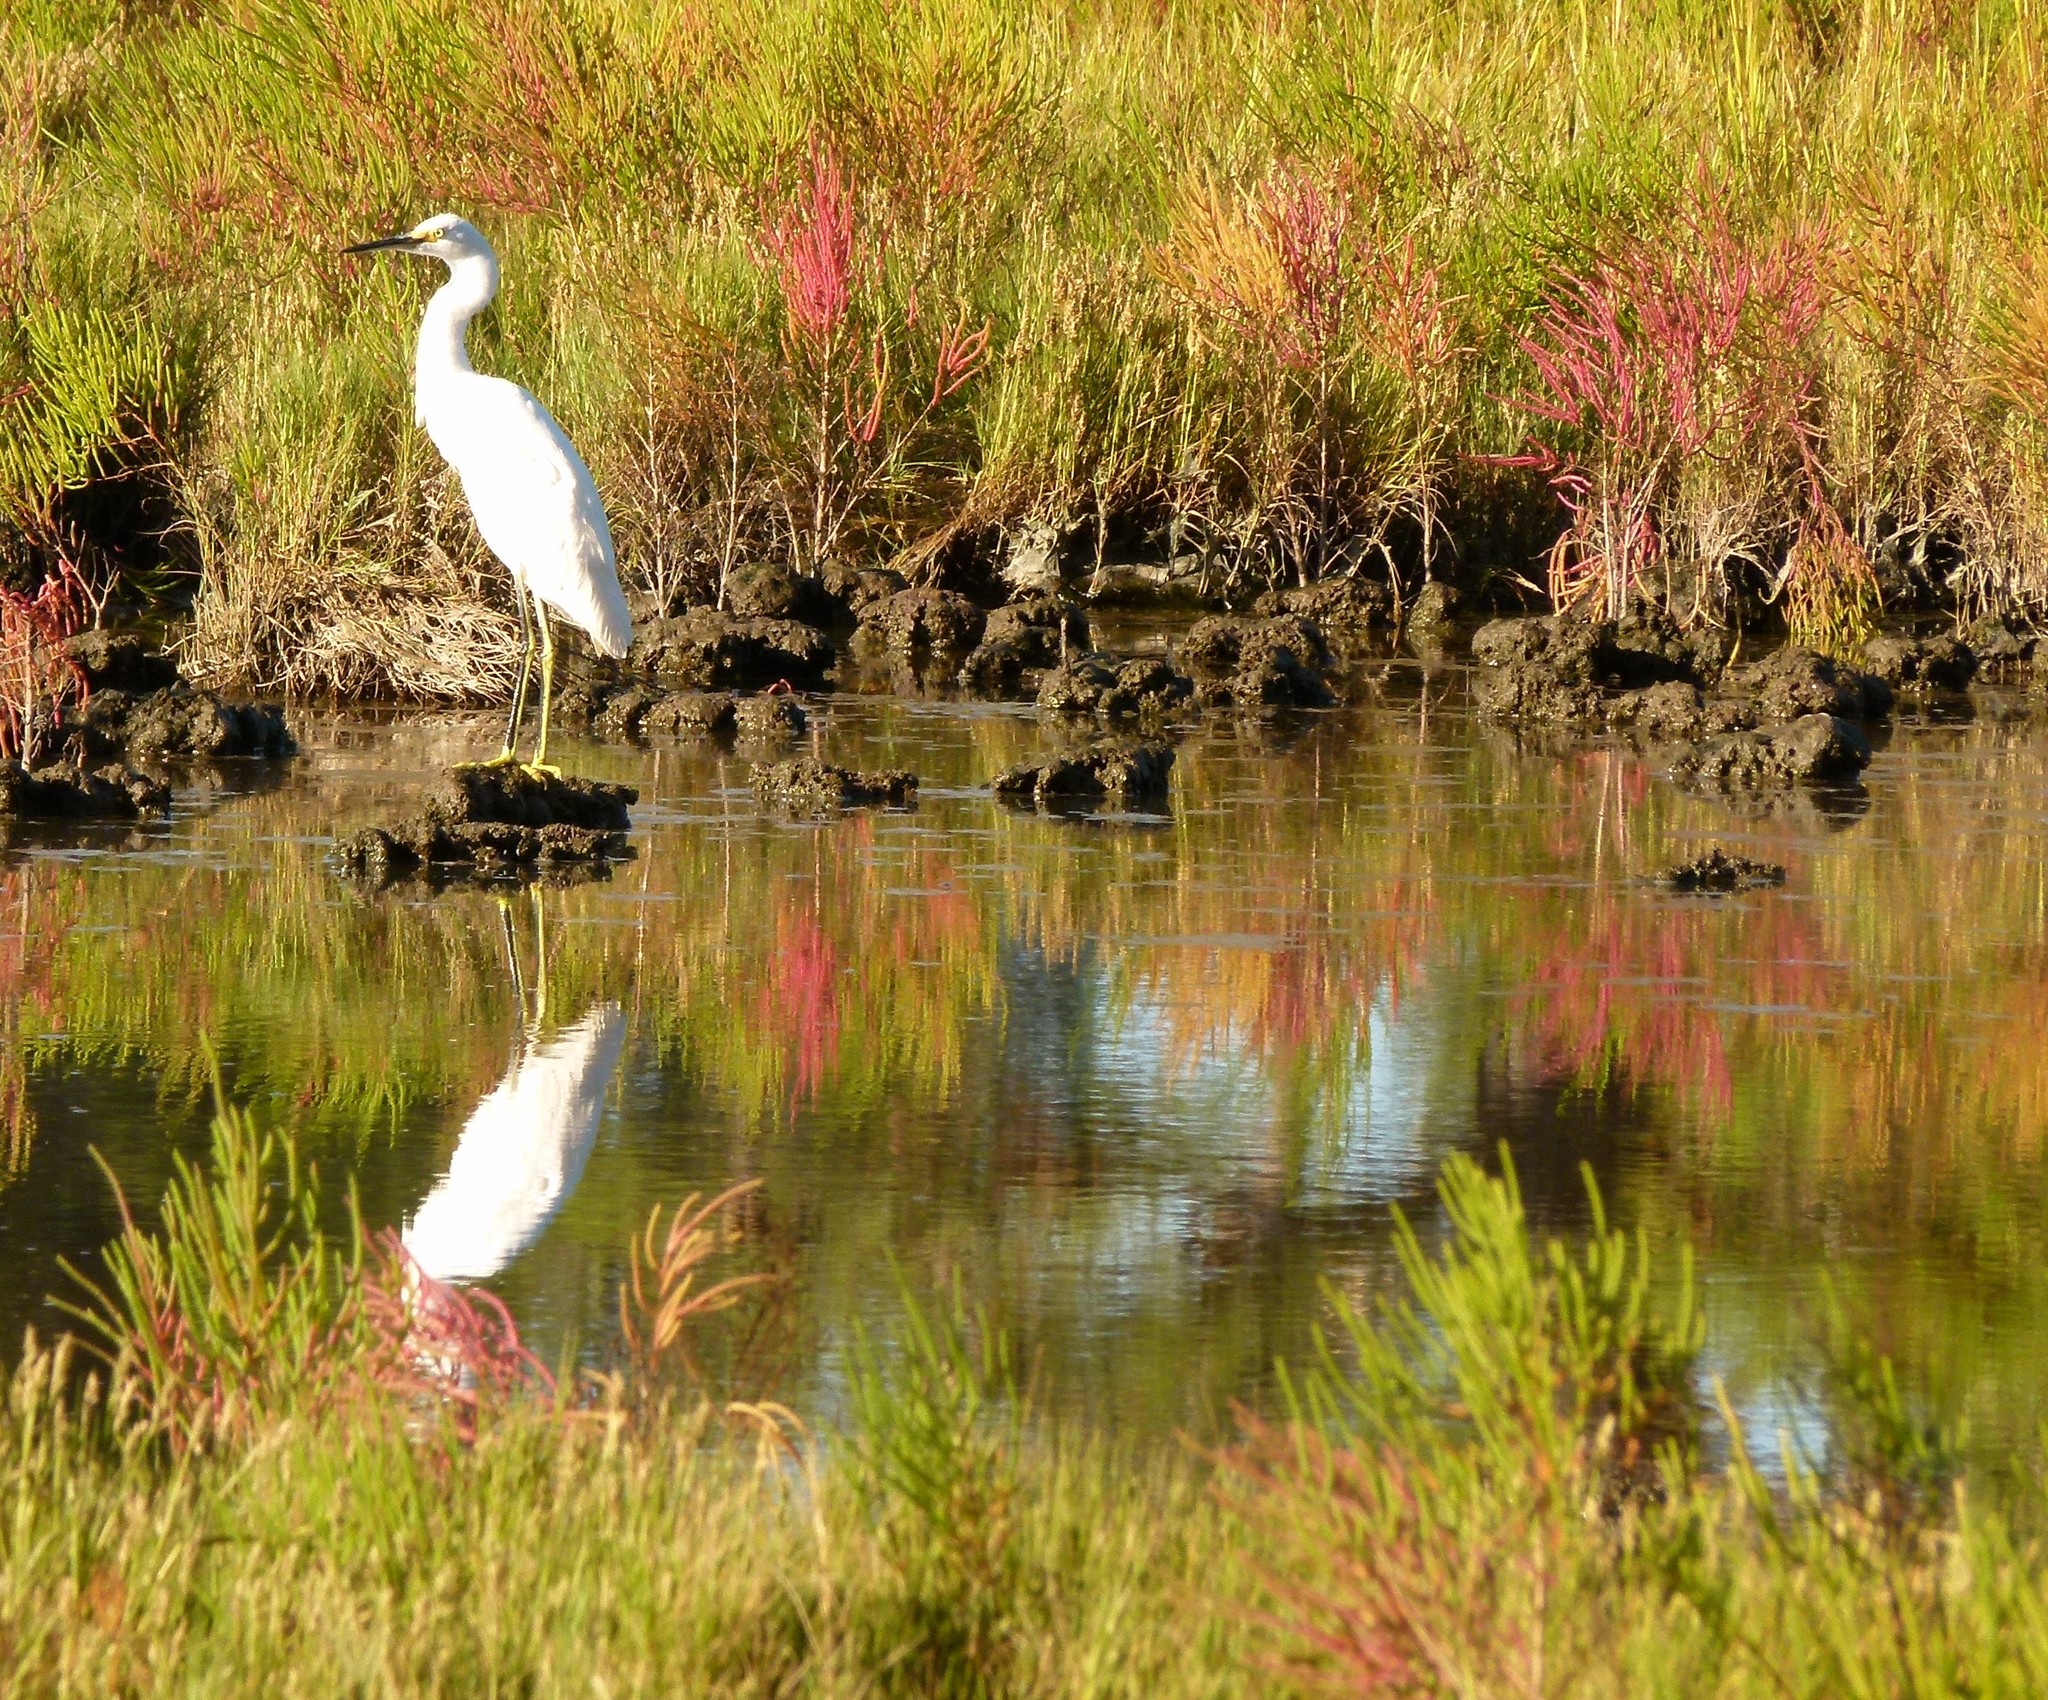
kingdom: Animalia
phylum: Chordata
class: Aves
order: Pelecaniformes
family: Ardeidae
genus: Egretta
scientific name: Egretta thula
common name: Snowy egret
